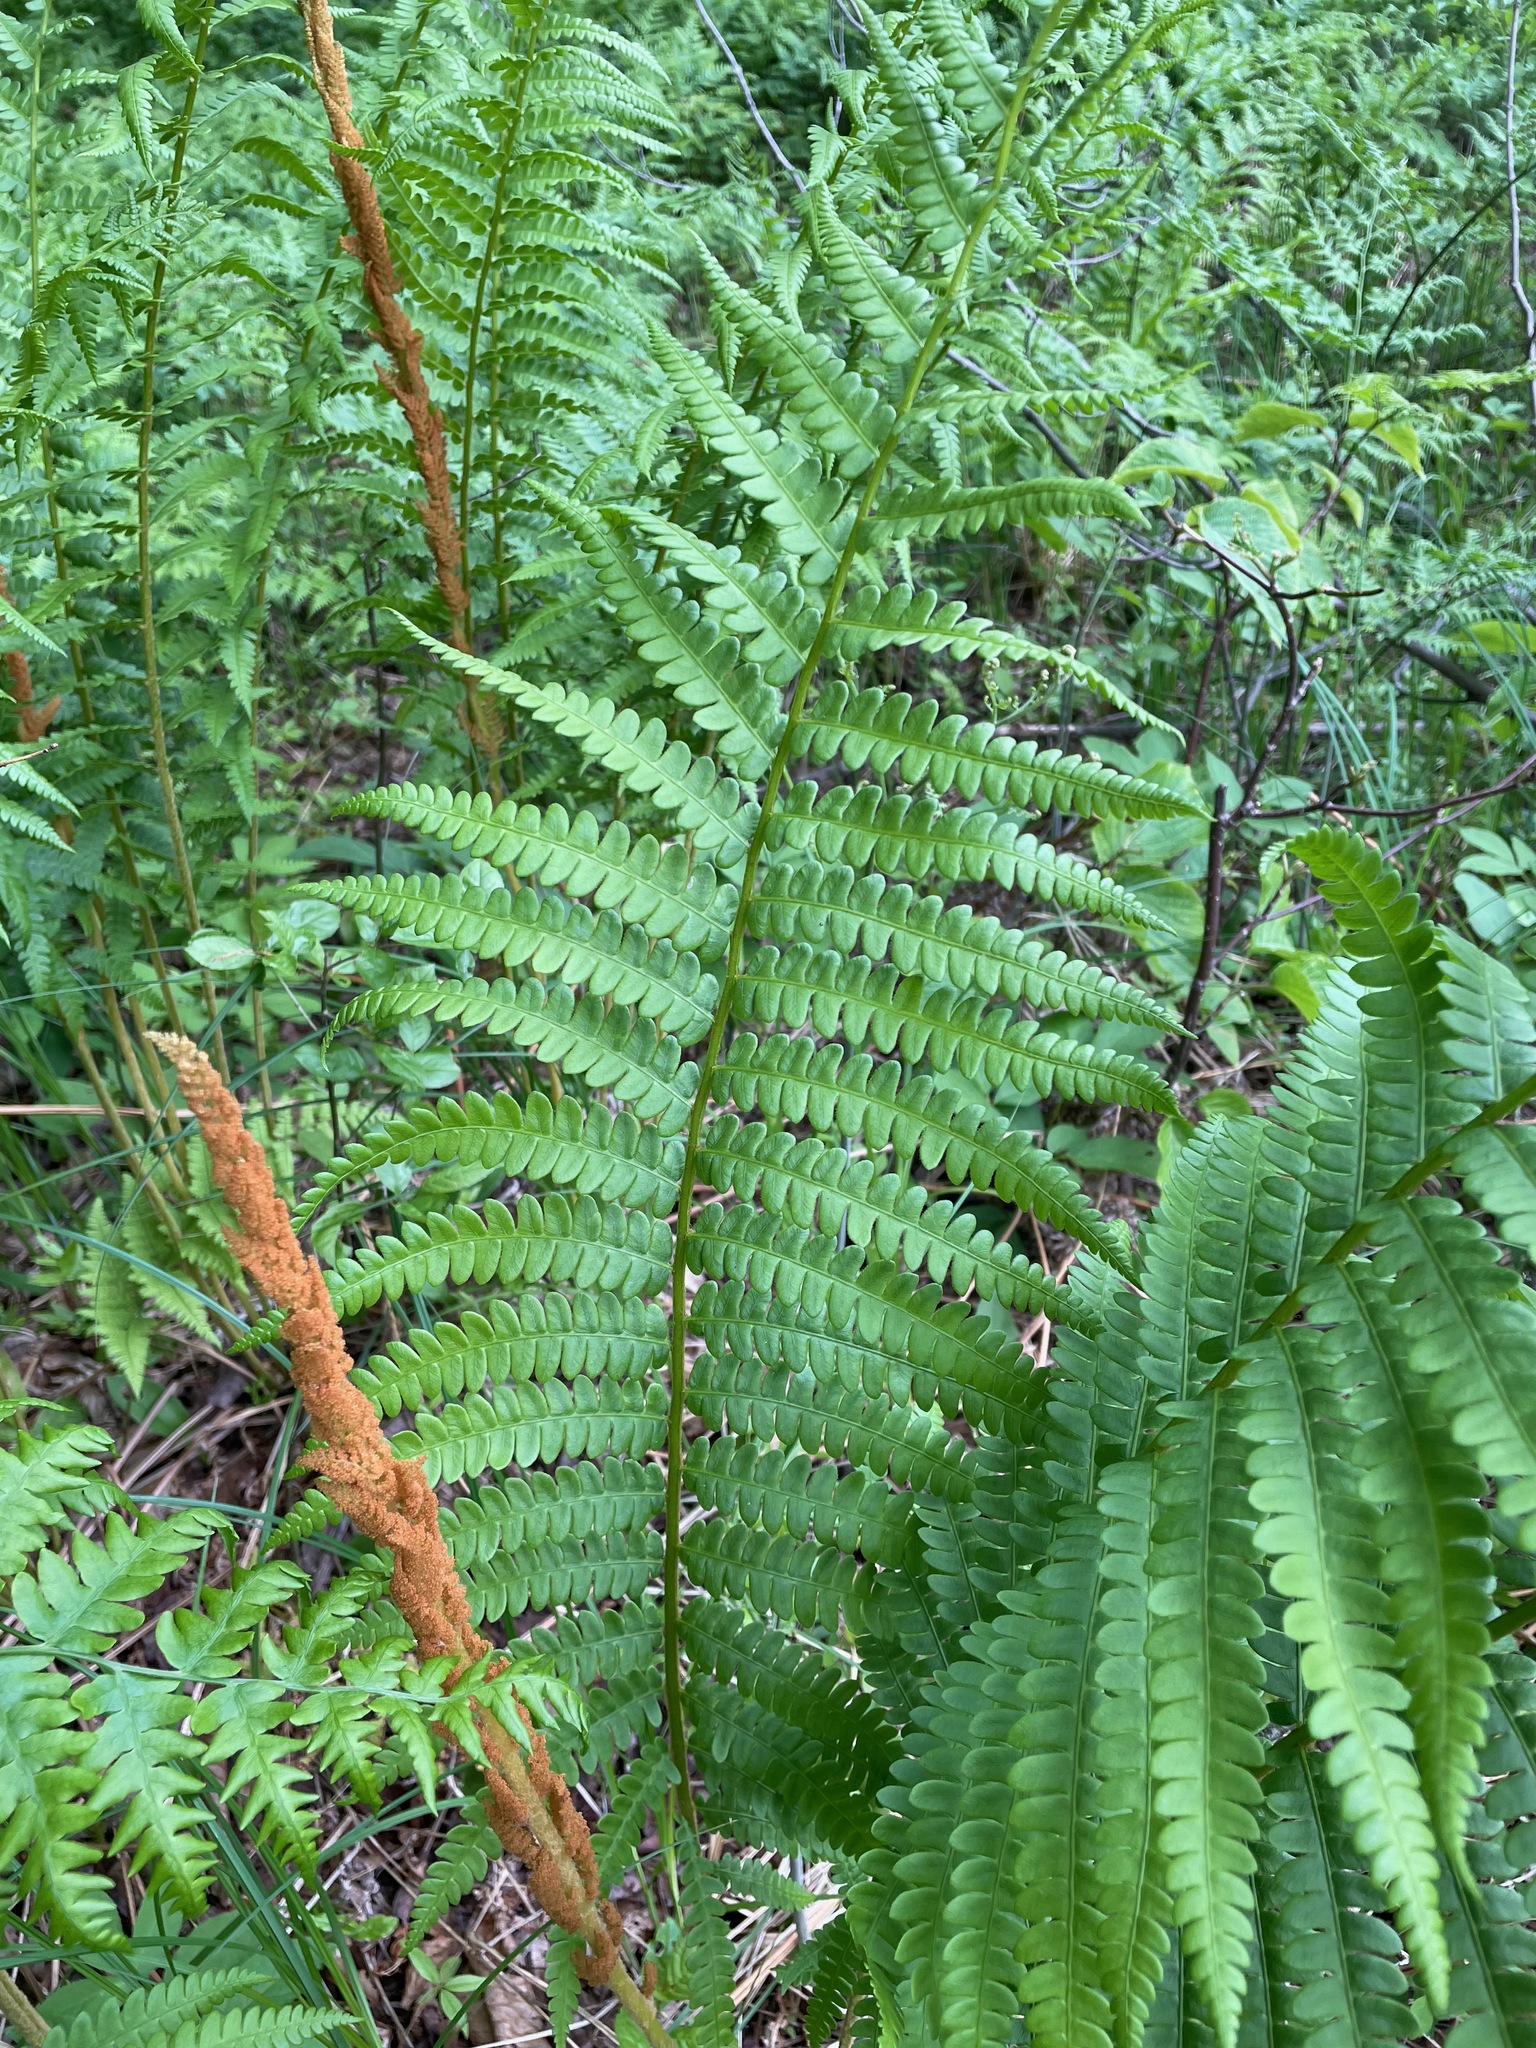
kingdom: Plantae
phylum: Tracheophyta
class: Polypodiopsida
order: Osmundales
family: Osmundaceae
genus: Osmundastrum
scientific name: Osmundastrum cinnamomeum
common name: Cinnamon fern
